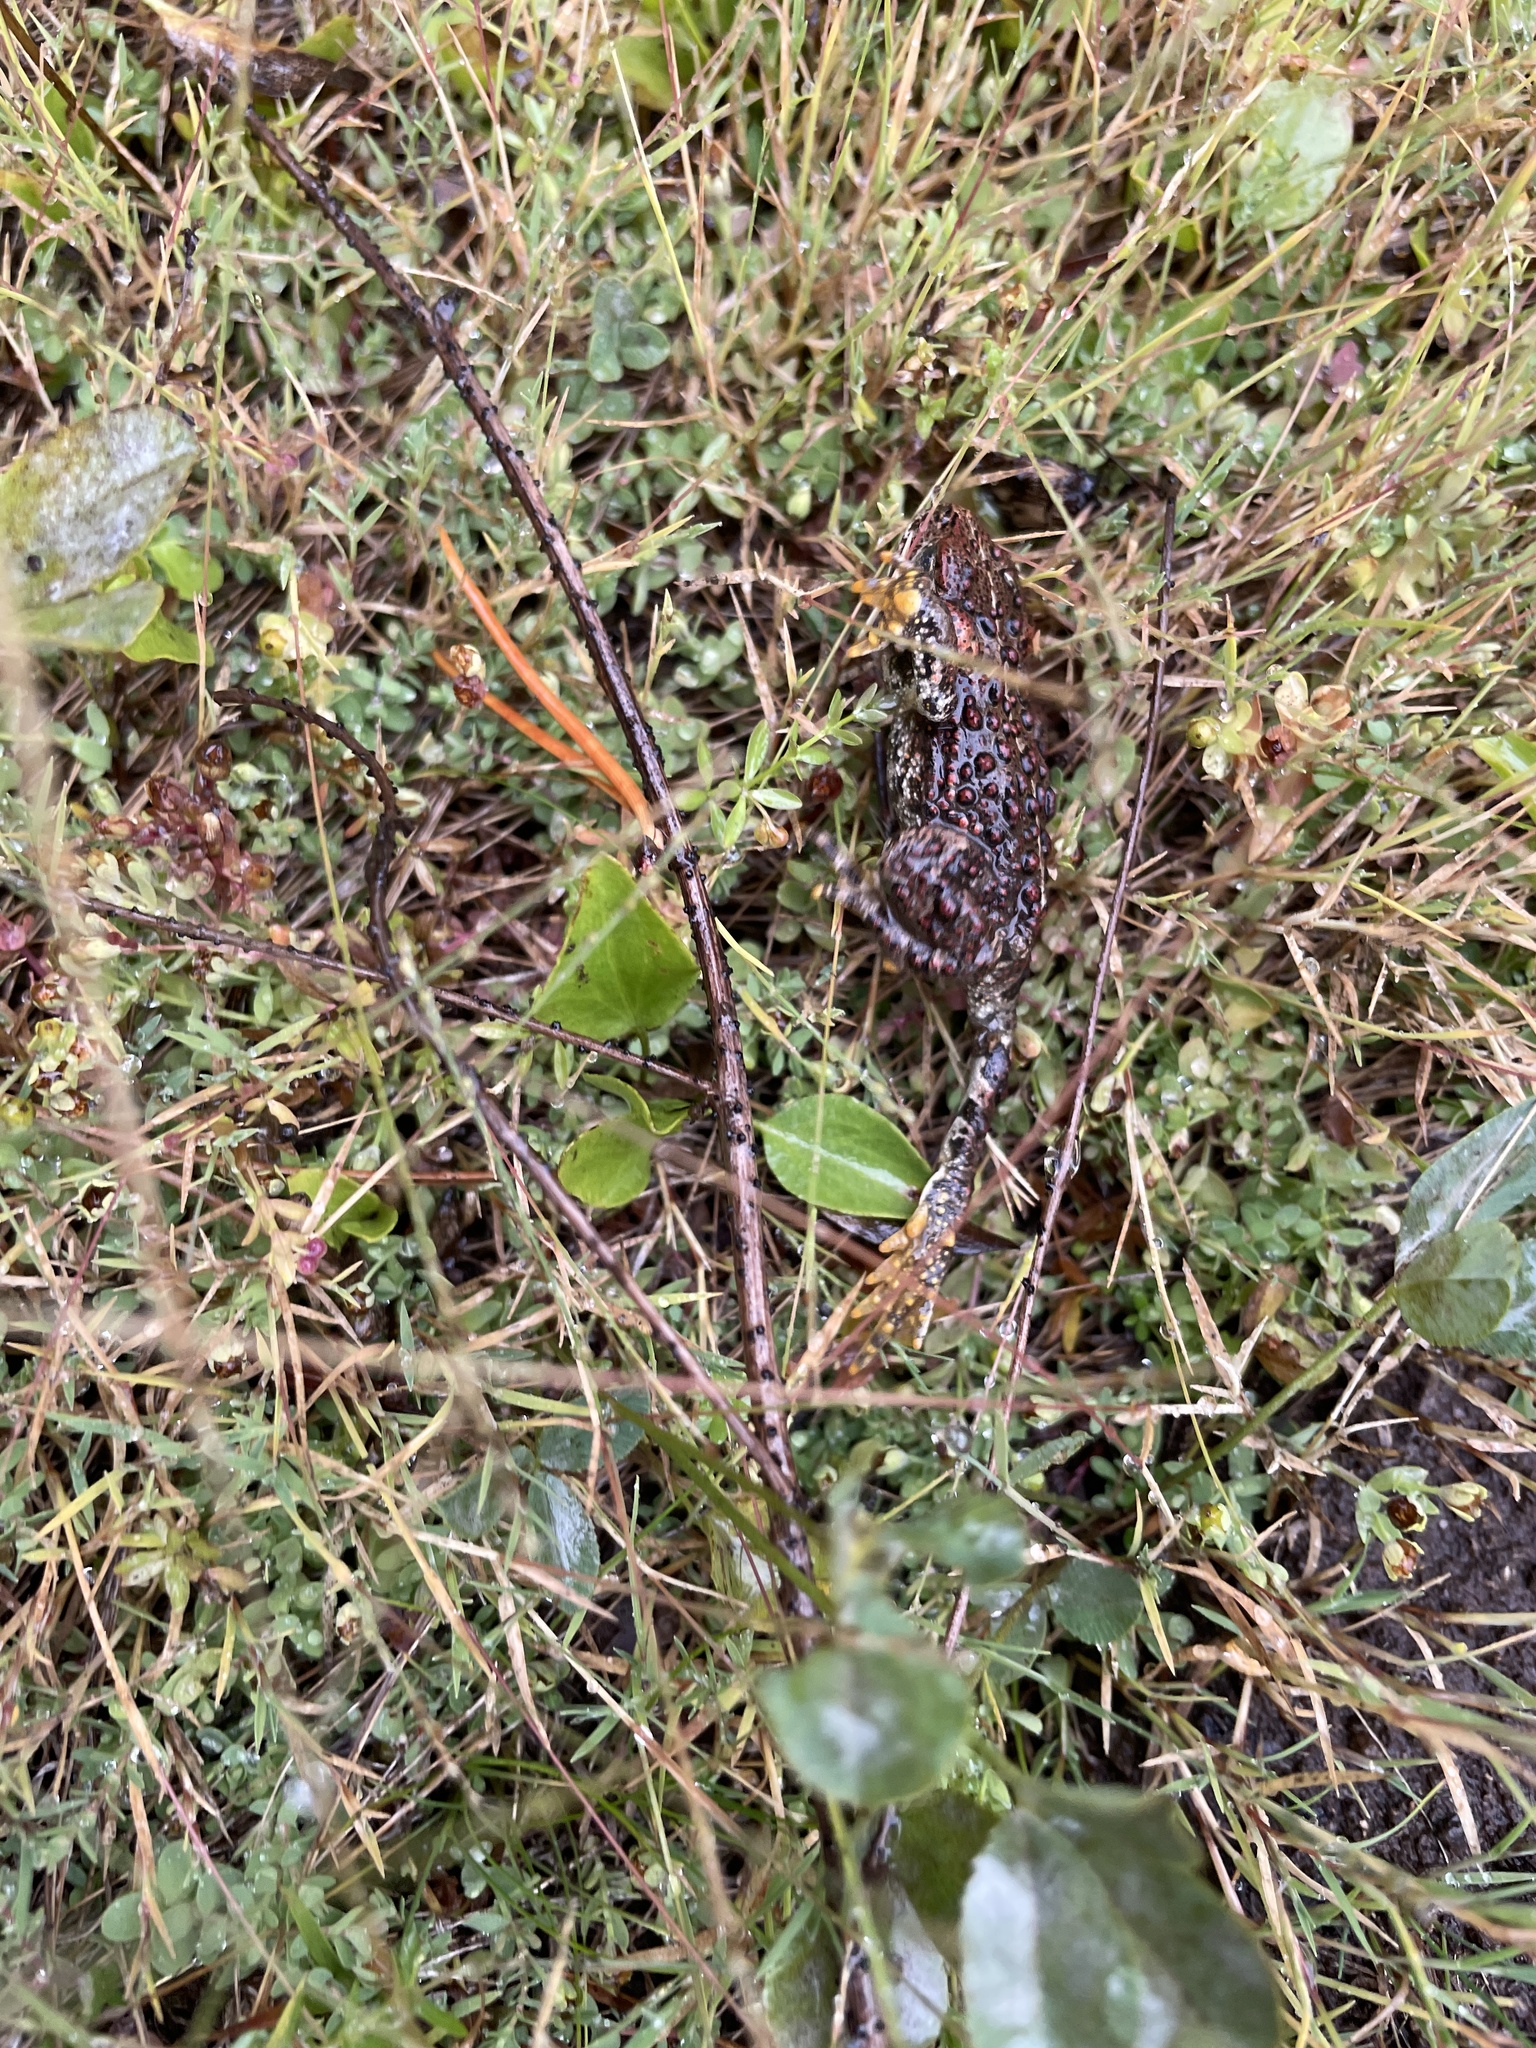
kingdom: Animalia
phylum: Chordata
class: Amphibia
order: Anura
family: Bufonidae
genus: Anaxyrus
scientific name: Anaxyrus boreas
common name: Western toad
